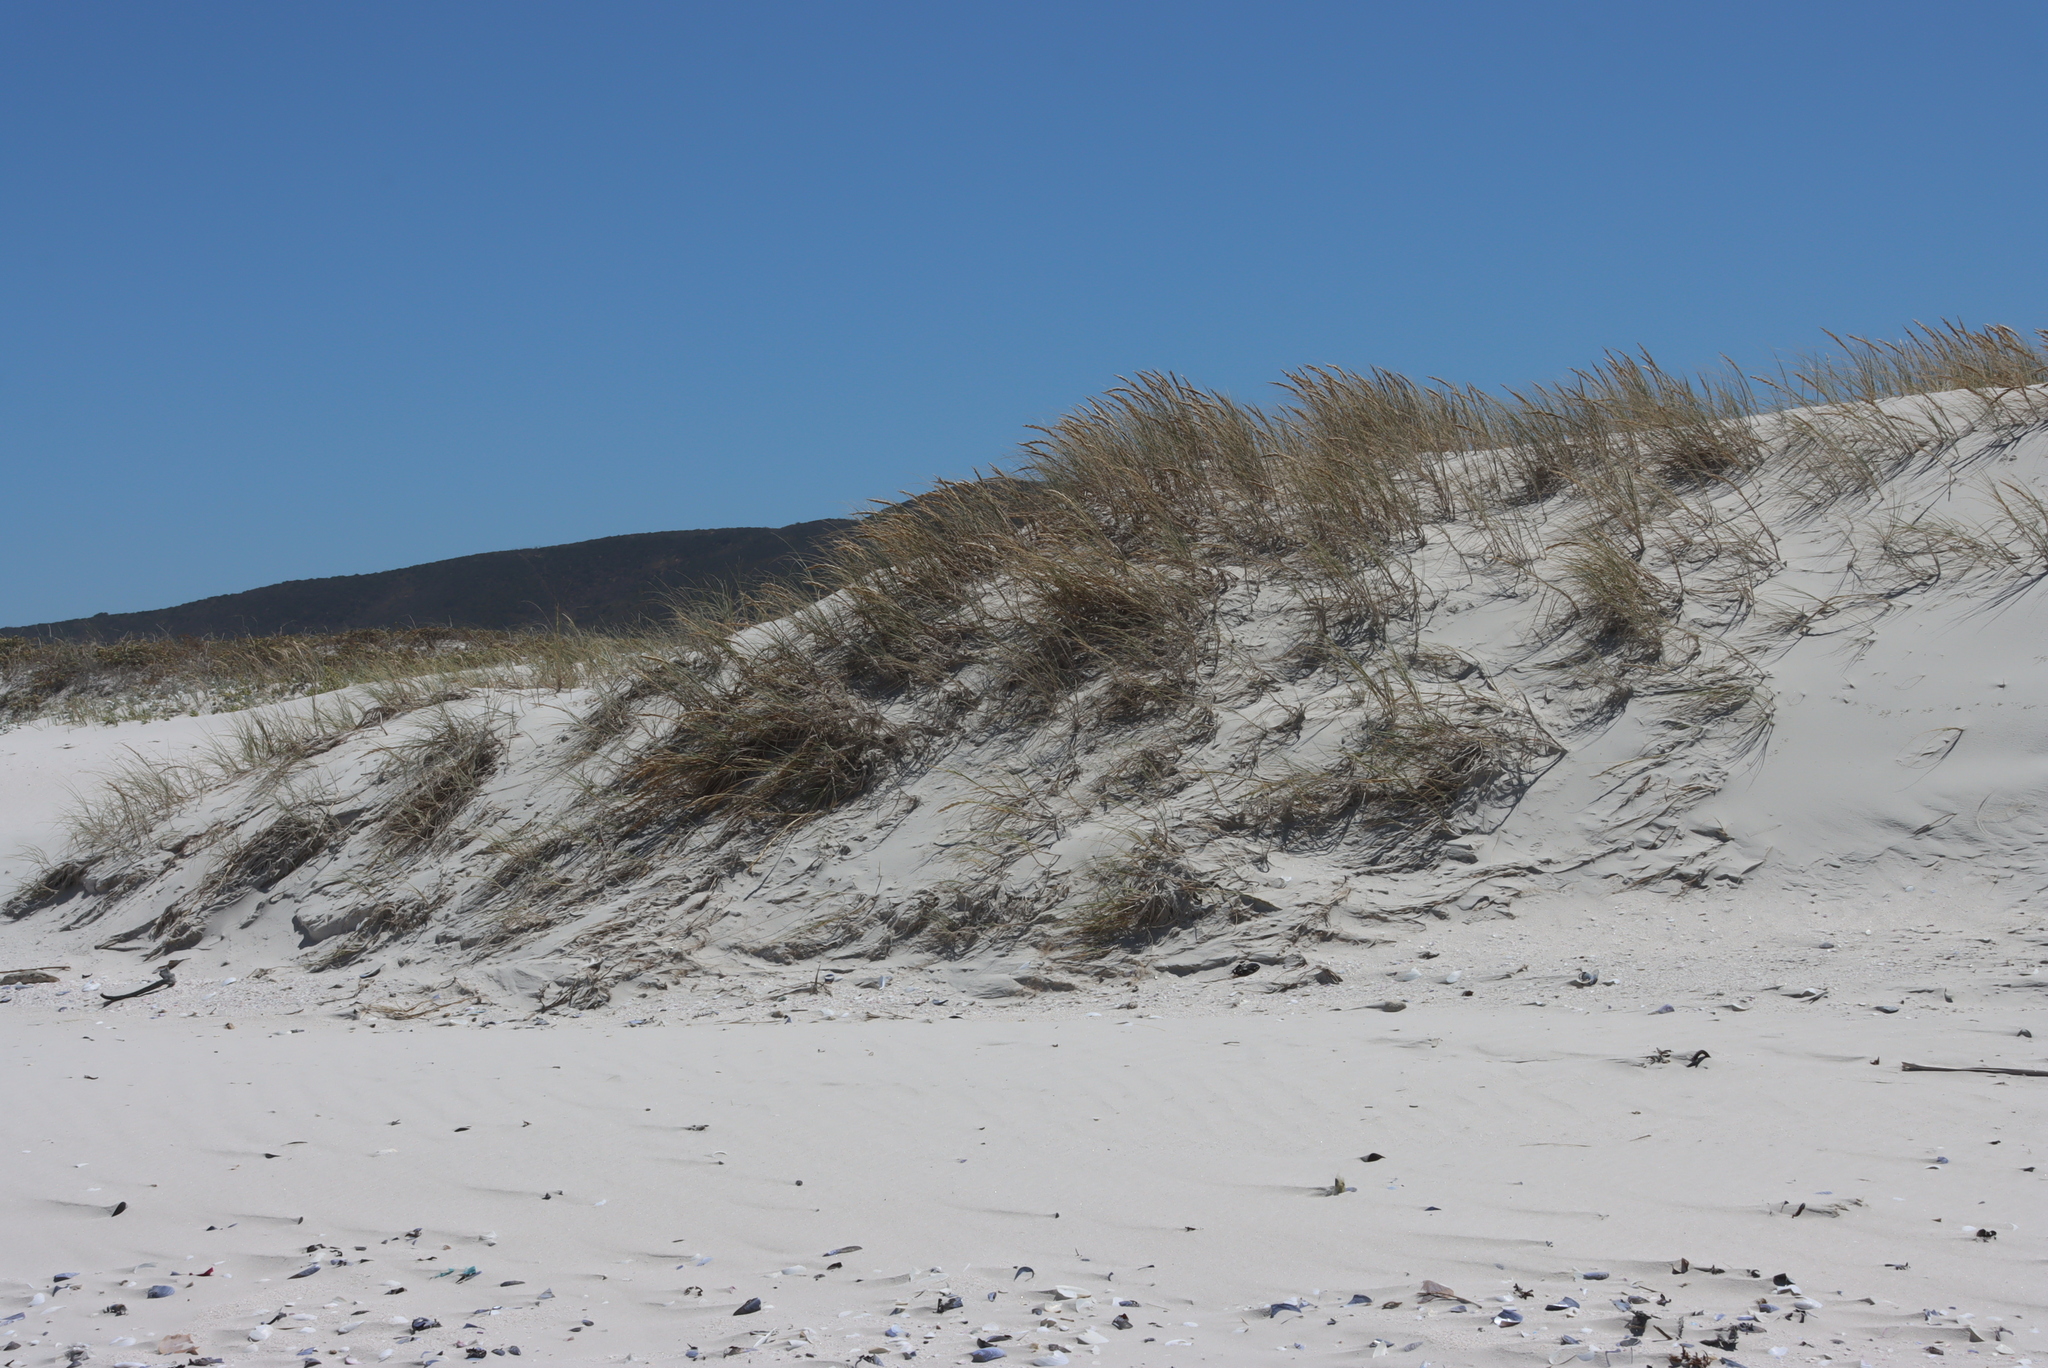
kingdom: Plantae
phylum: Tracheophyta
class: Liliopsida
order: Poales
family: Poaceae
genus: Thinopyrum
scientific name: Thinopyrum distichum
